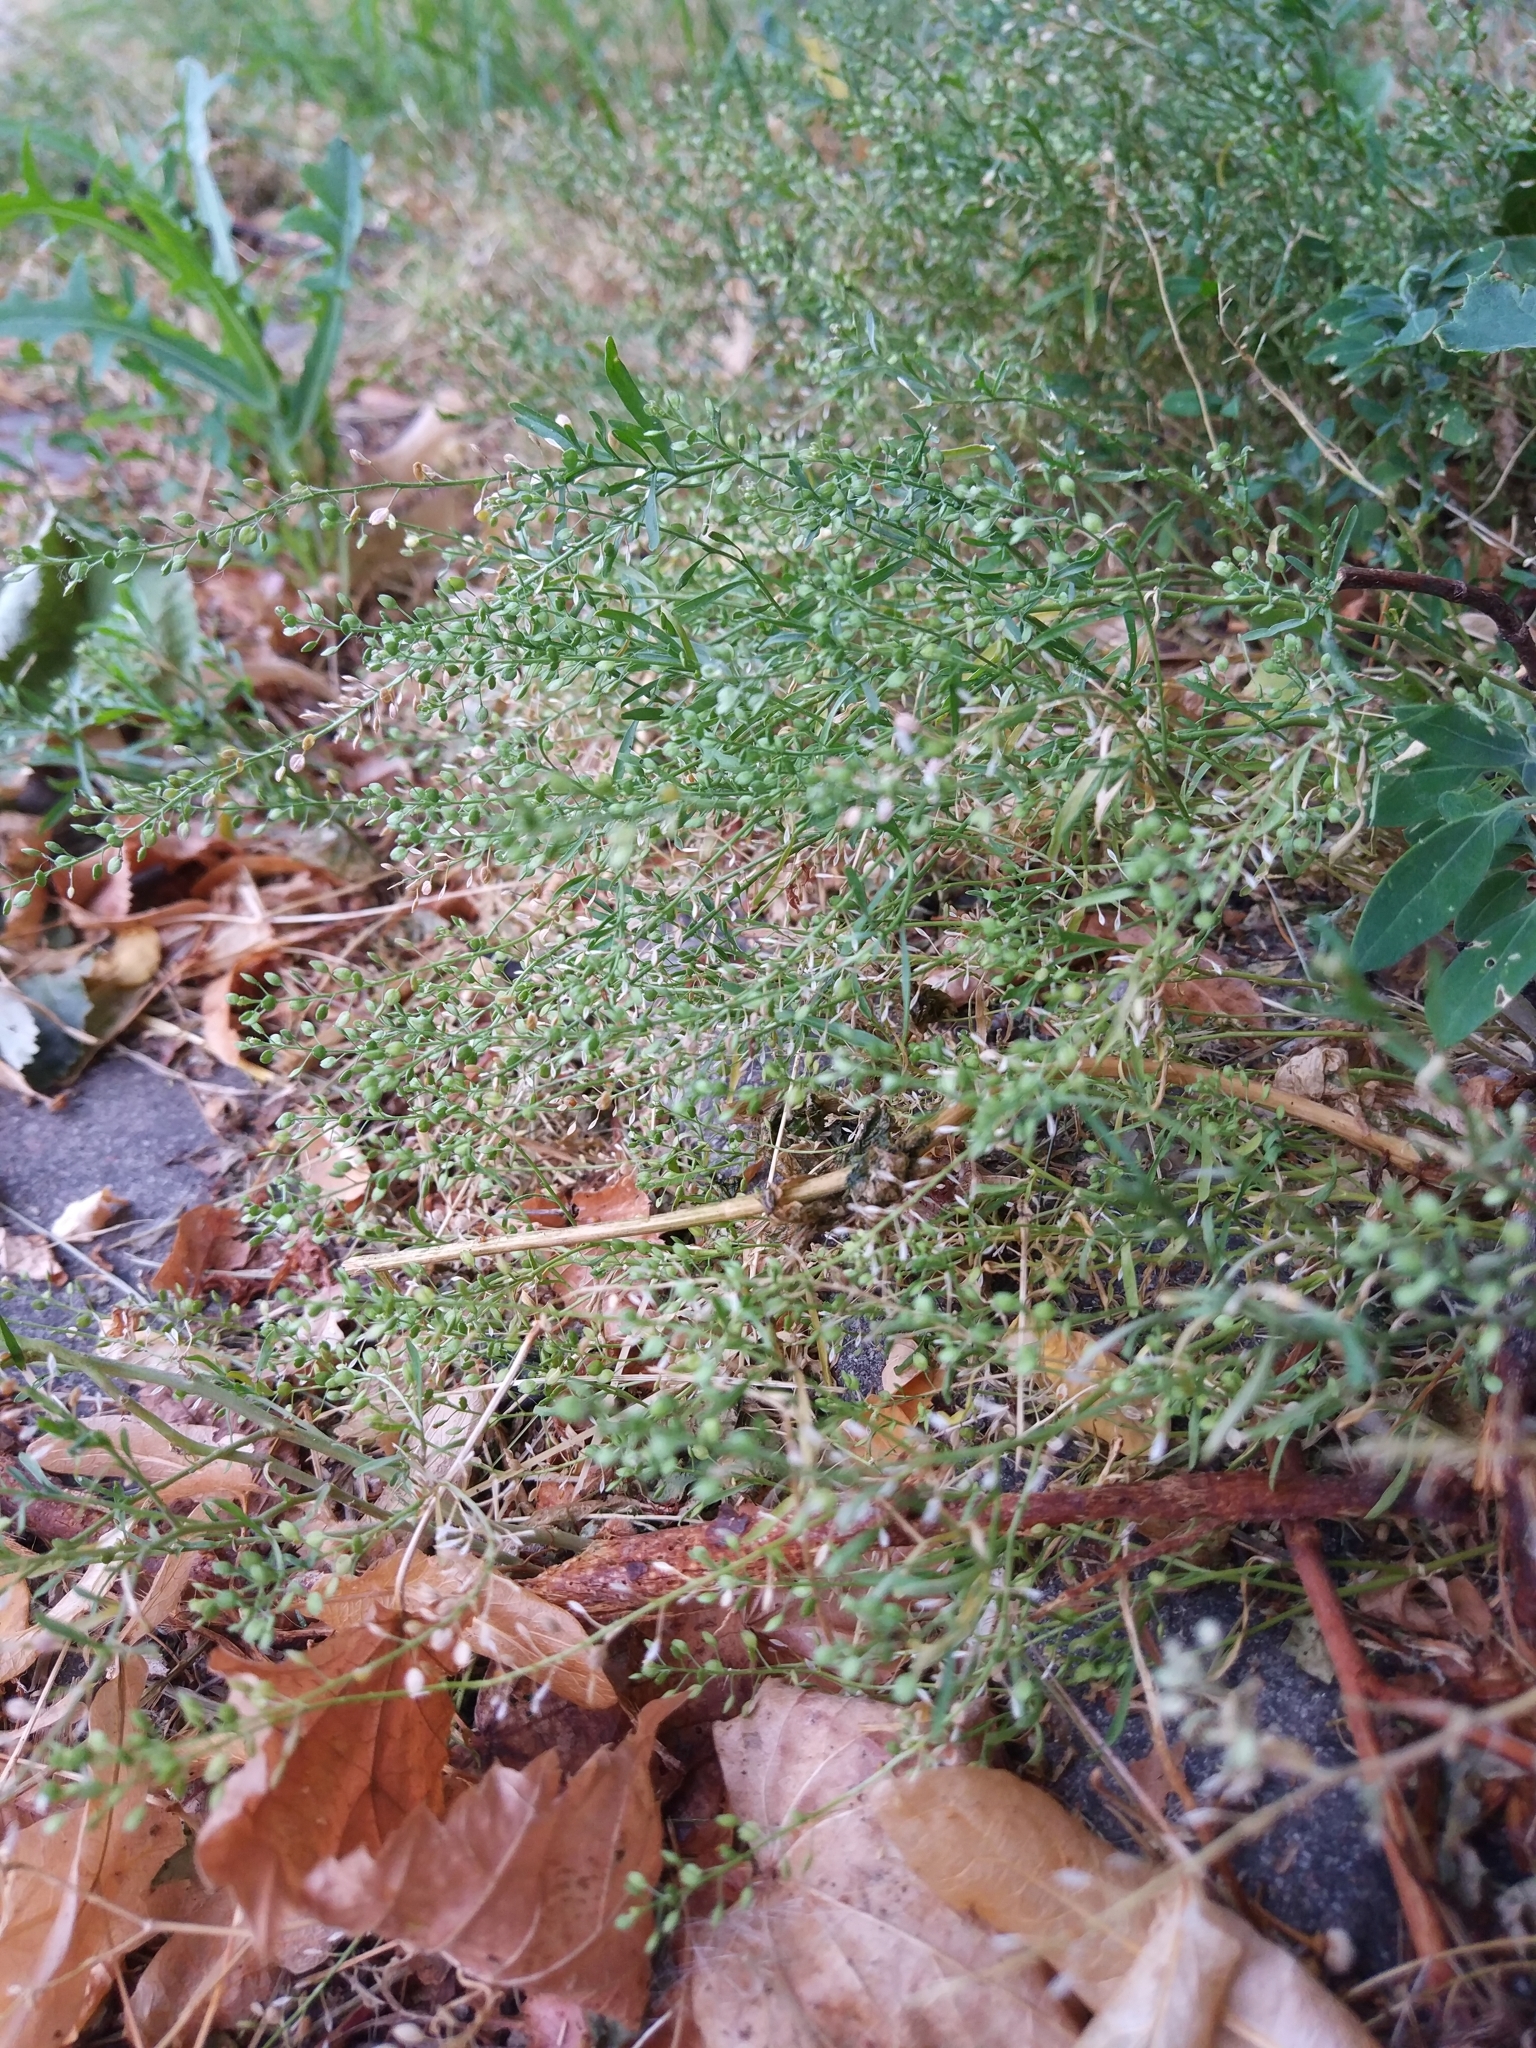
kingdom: Plantae
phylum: Tracheophyta
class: Magnoliopsida
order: Brassicales
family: Brassicaceae
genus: Lepidium
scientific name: Lepidium ruderale
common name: Narrow-leaved pepperwort
